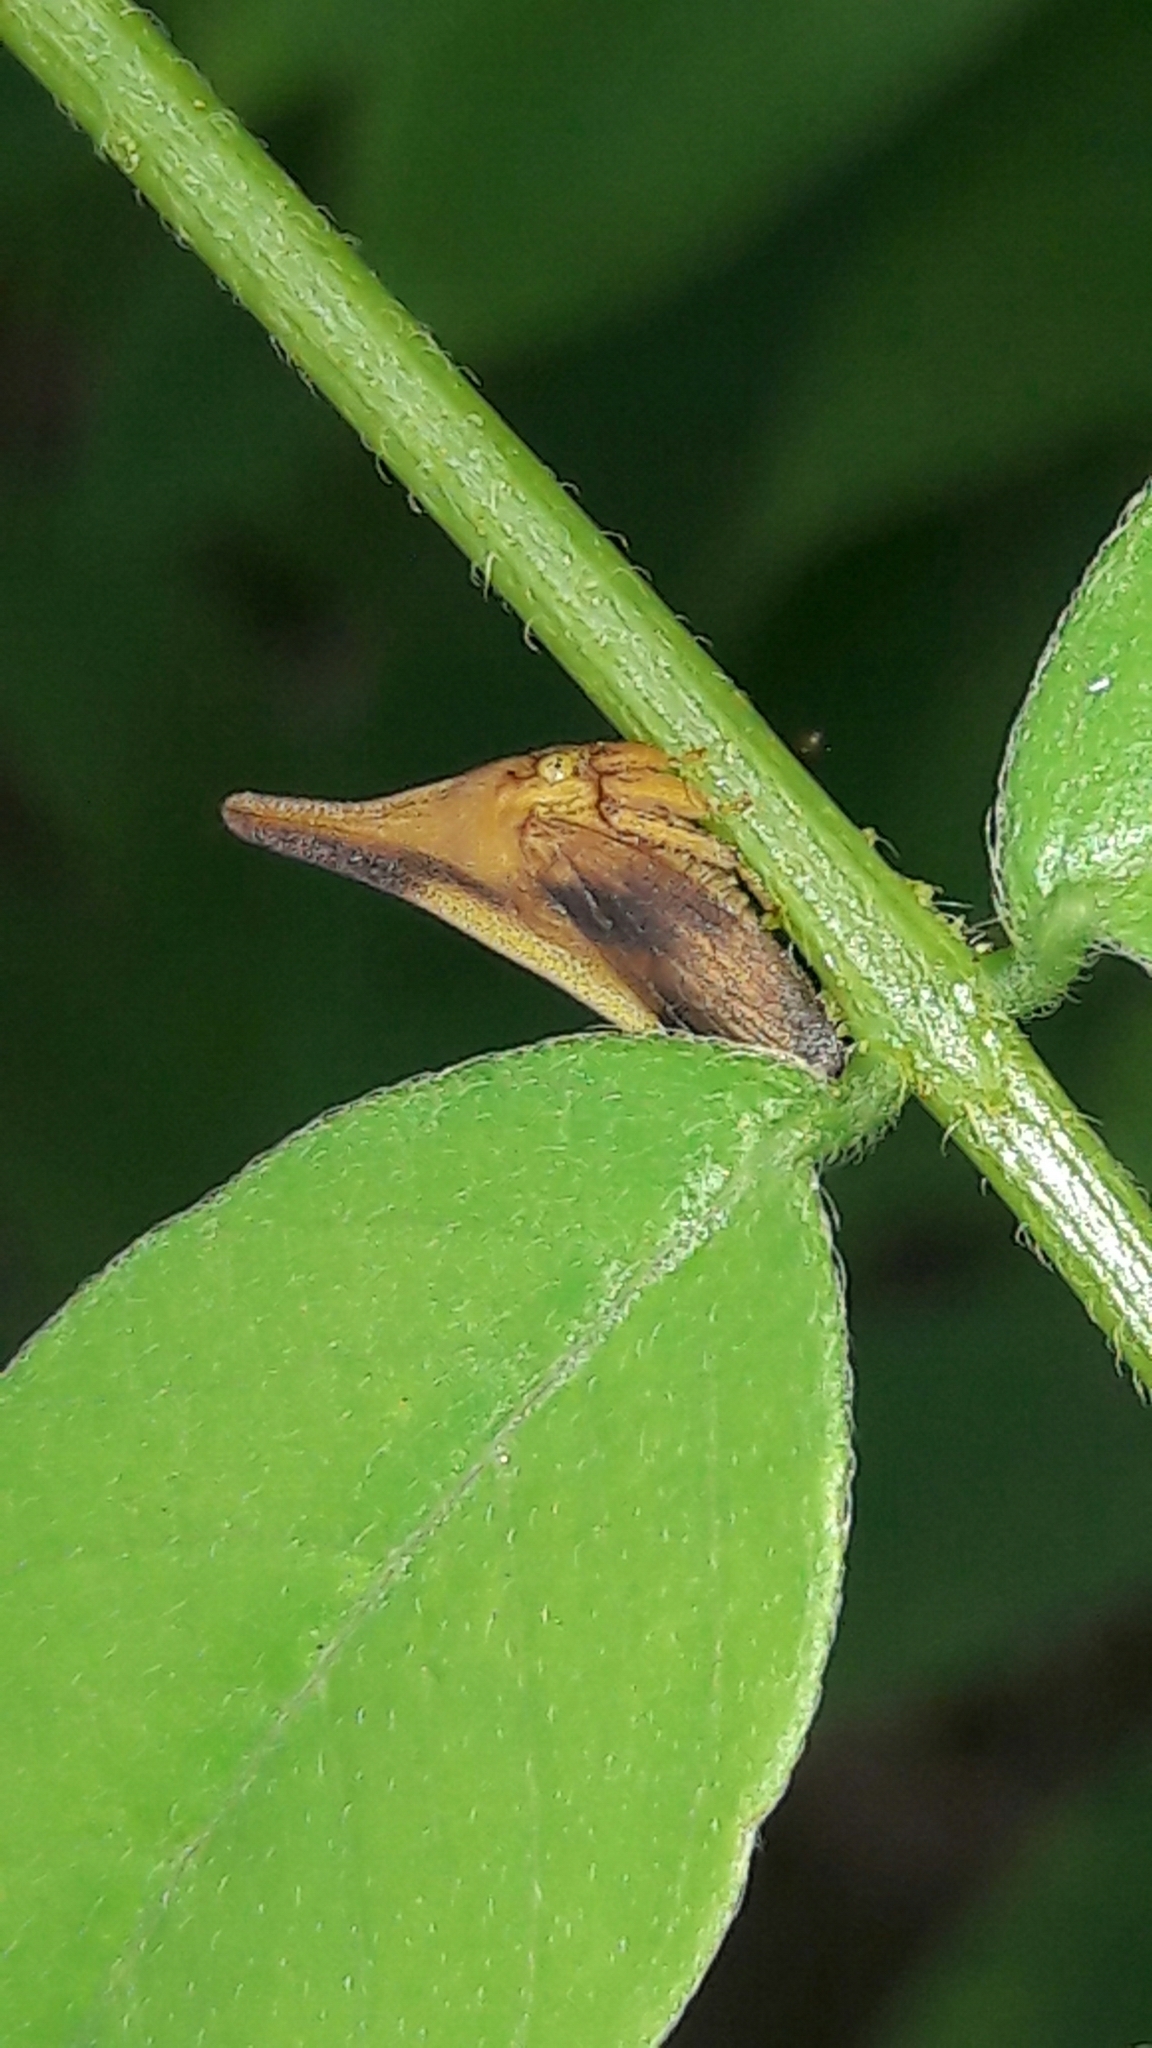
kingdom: Animalia
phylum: Arthropoda
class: Insecta
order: Hemiptera
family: Membracidae
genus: Enchenopa
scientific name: Enchenopa concolor
